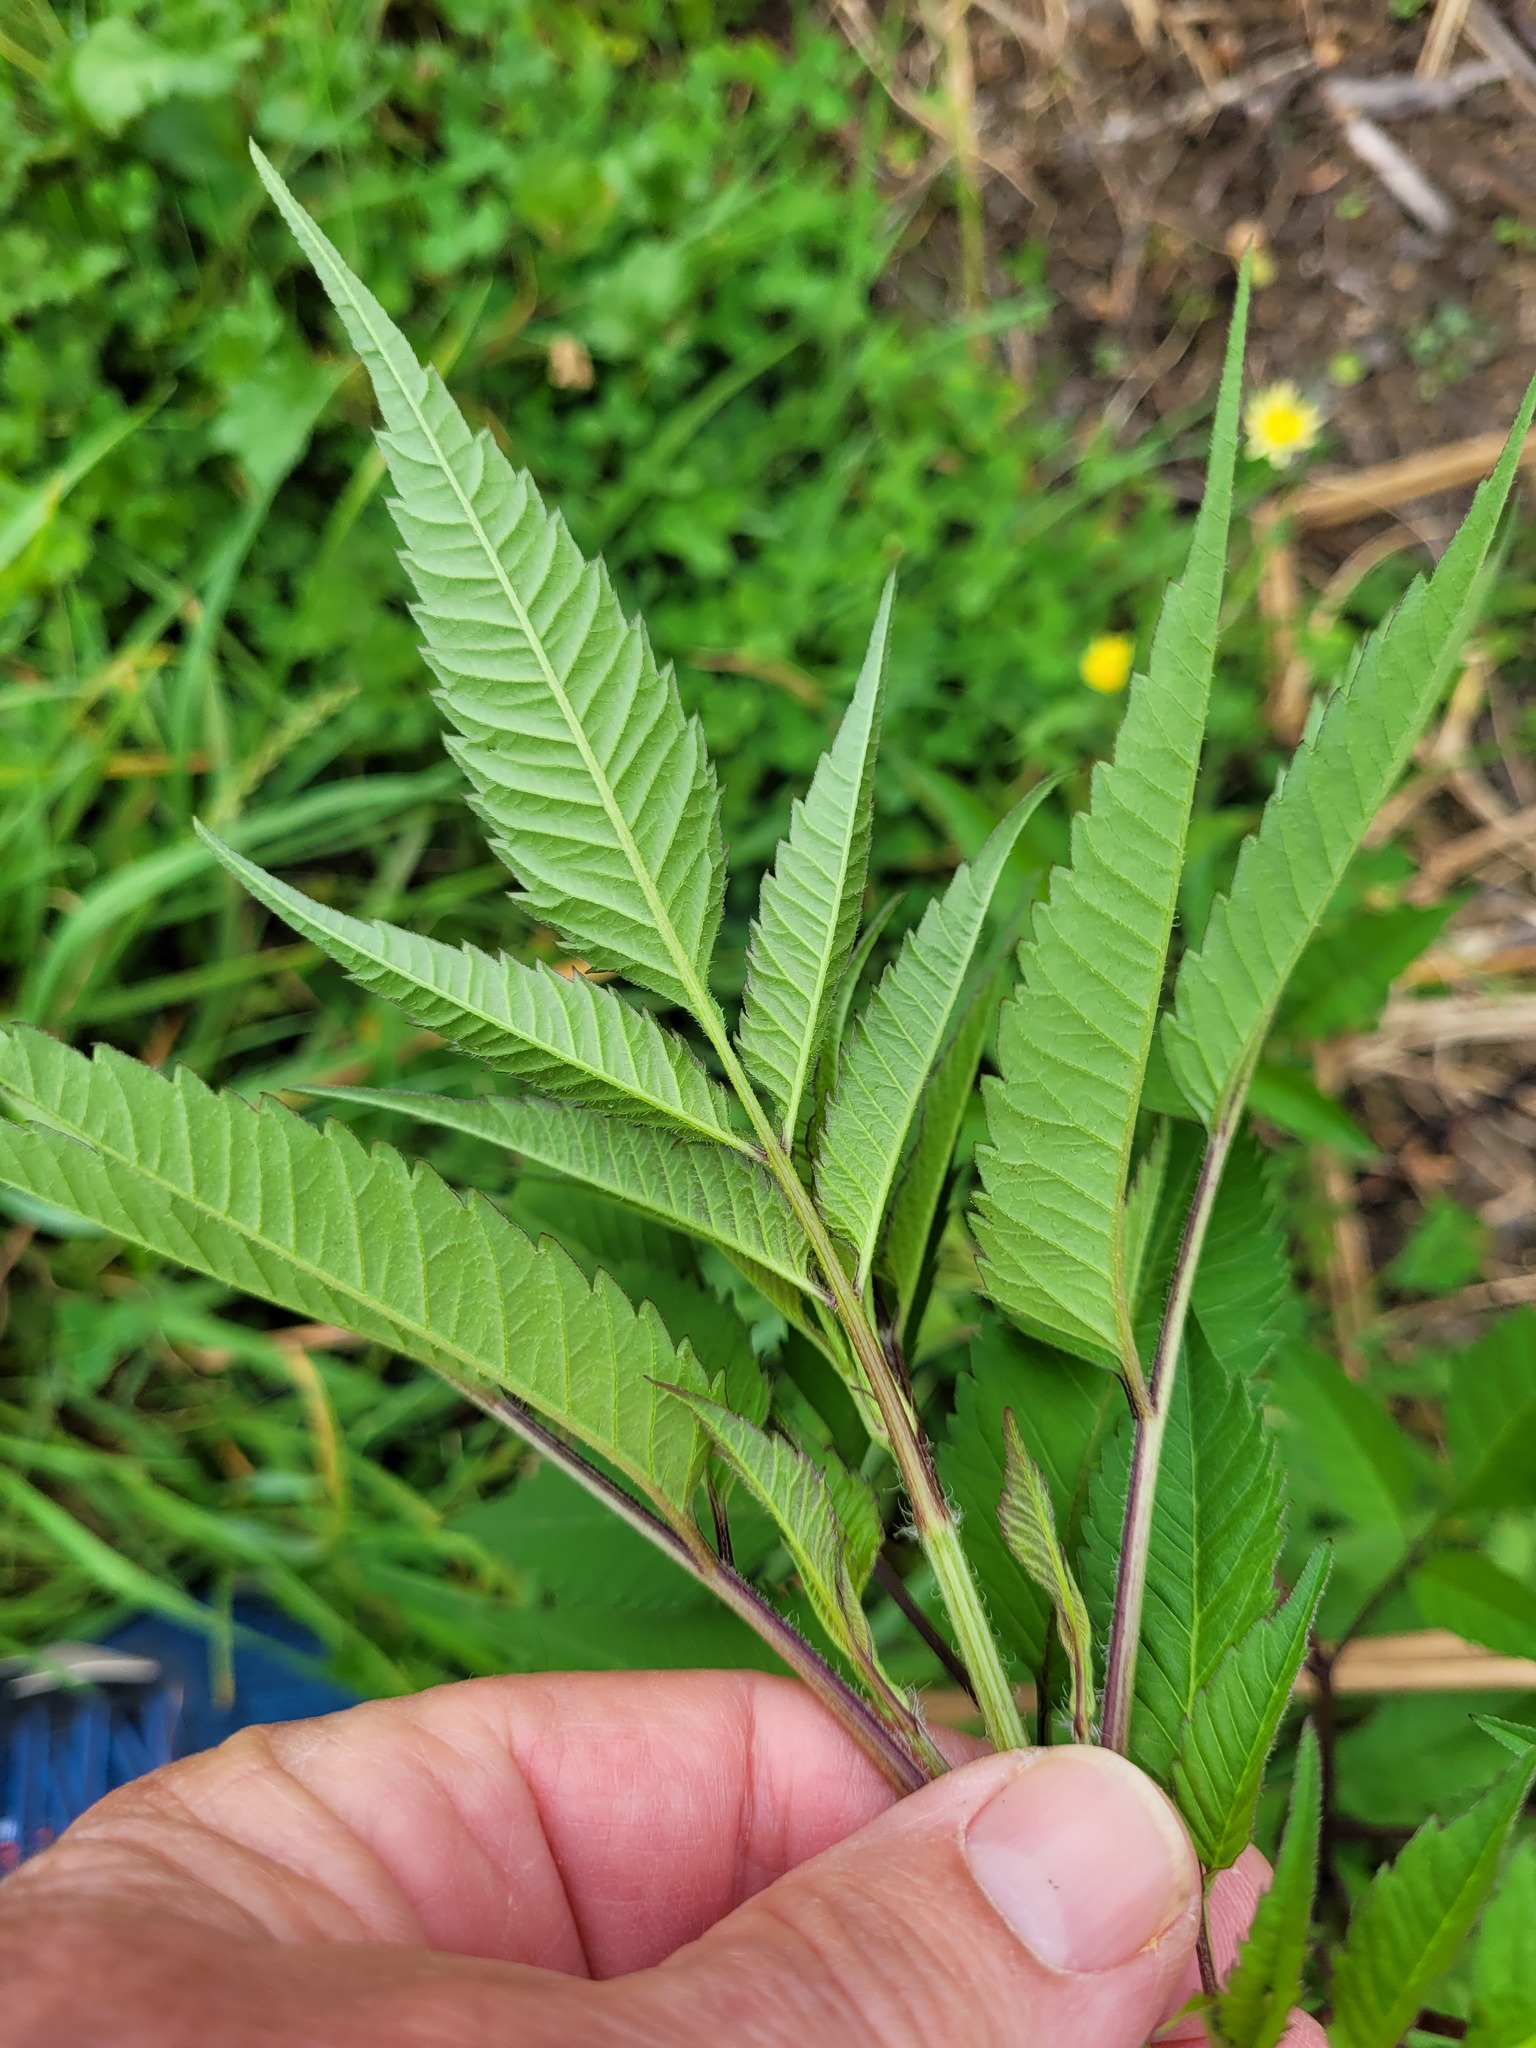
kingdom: Plantae
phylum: Tracheophyta
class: Magnoliopsida
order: Asterales
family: Asteraceae
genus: Bidens
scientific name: Bidens frondosa
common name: Beggarticks
